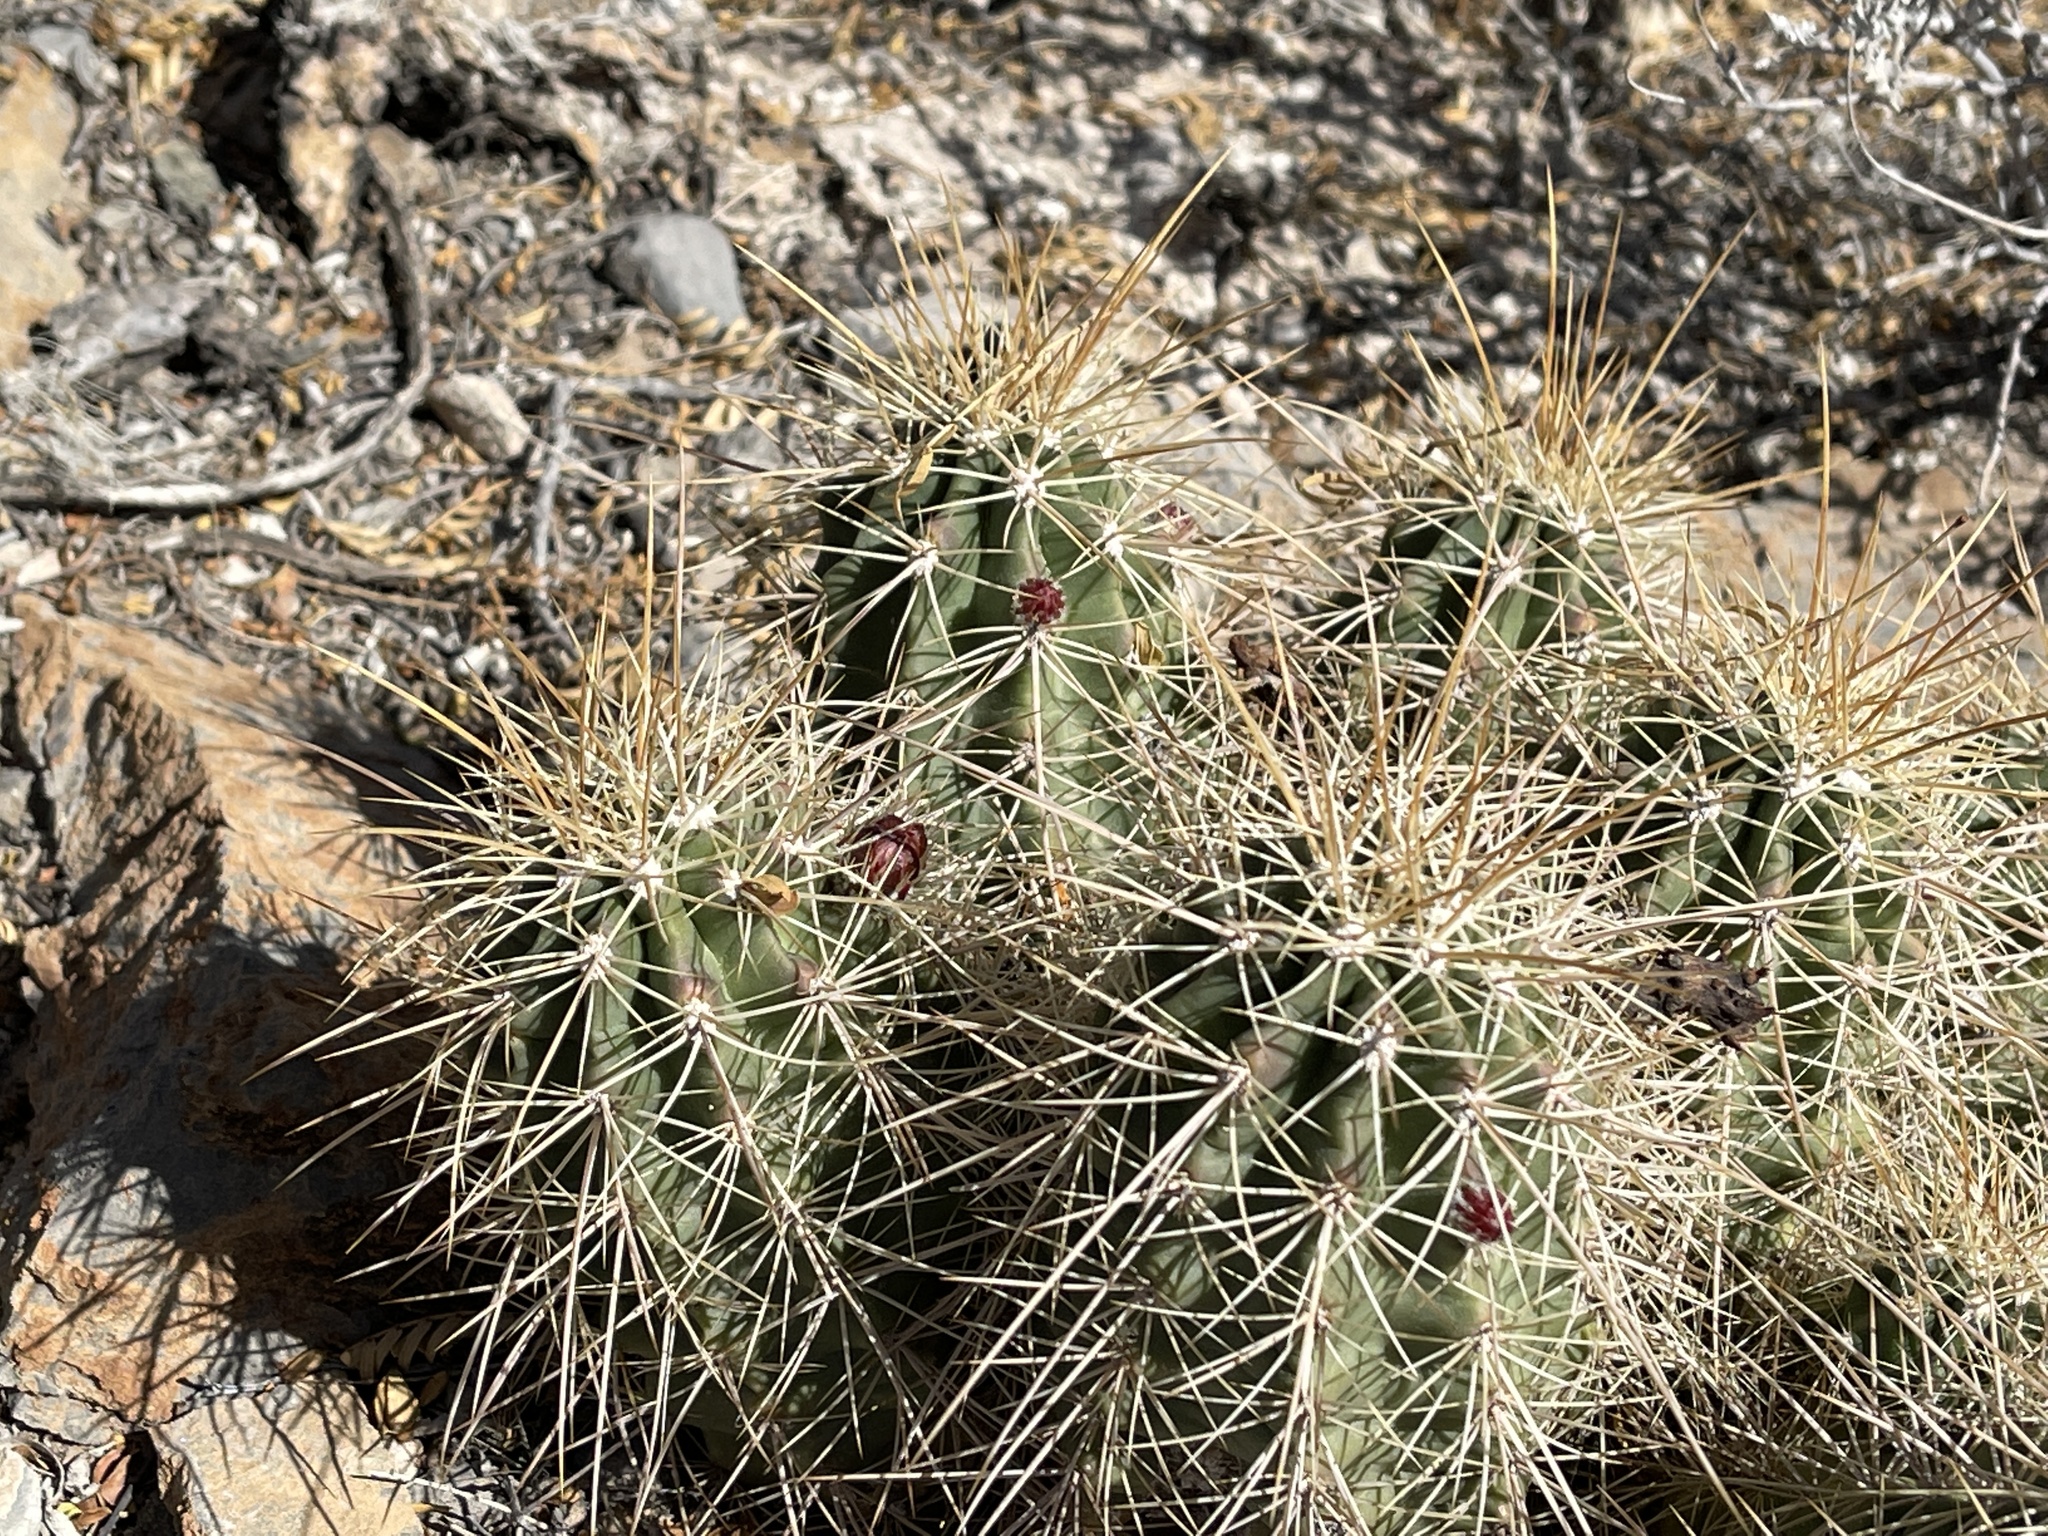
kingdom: Plantae
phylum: Tracheophyta
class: Magnoliopsida
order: Caryophyllales
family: Cactaceae
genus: Echinocereus
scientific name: Echinocereus coccineus
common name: Scarlet hedgehog cactus
